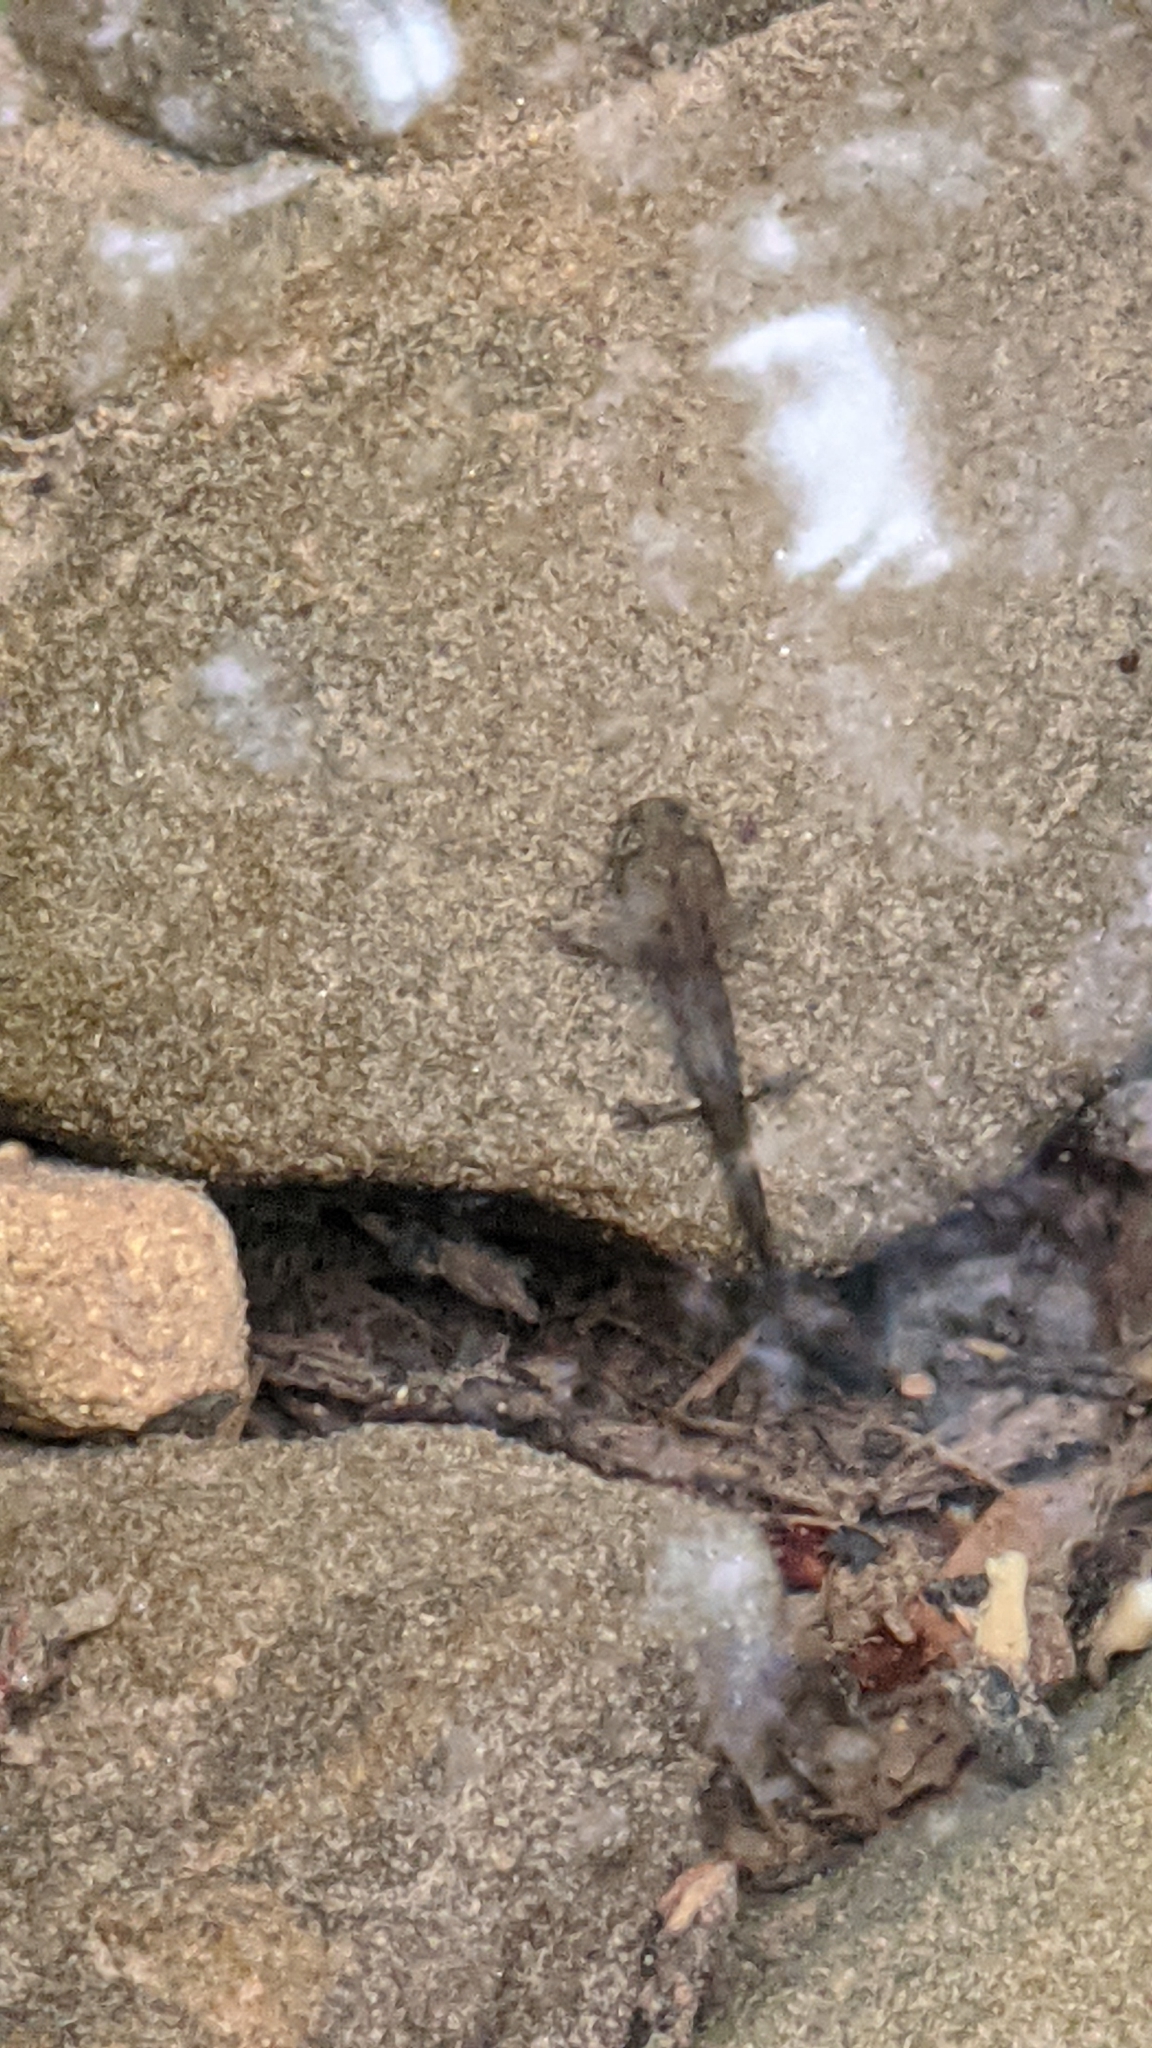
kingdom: Animalia
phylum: Chordata
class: Amphibia
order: Caudata
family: Salamandridae
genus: Salamandra
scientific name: Salamandra salamandra
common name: Fire salamander
